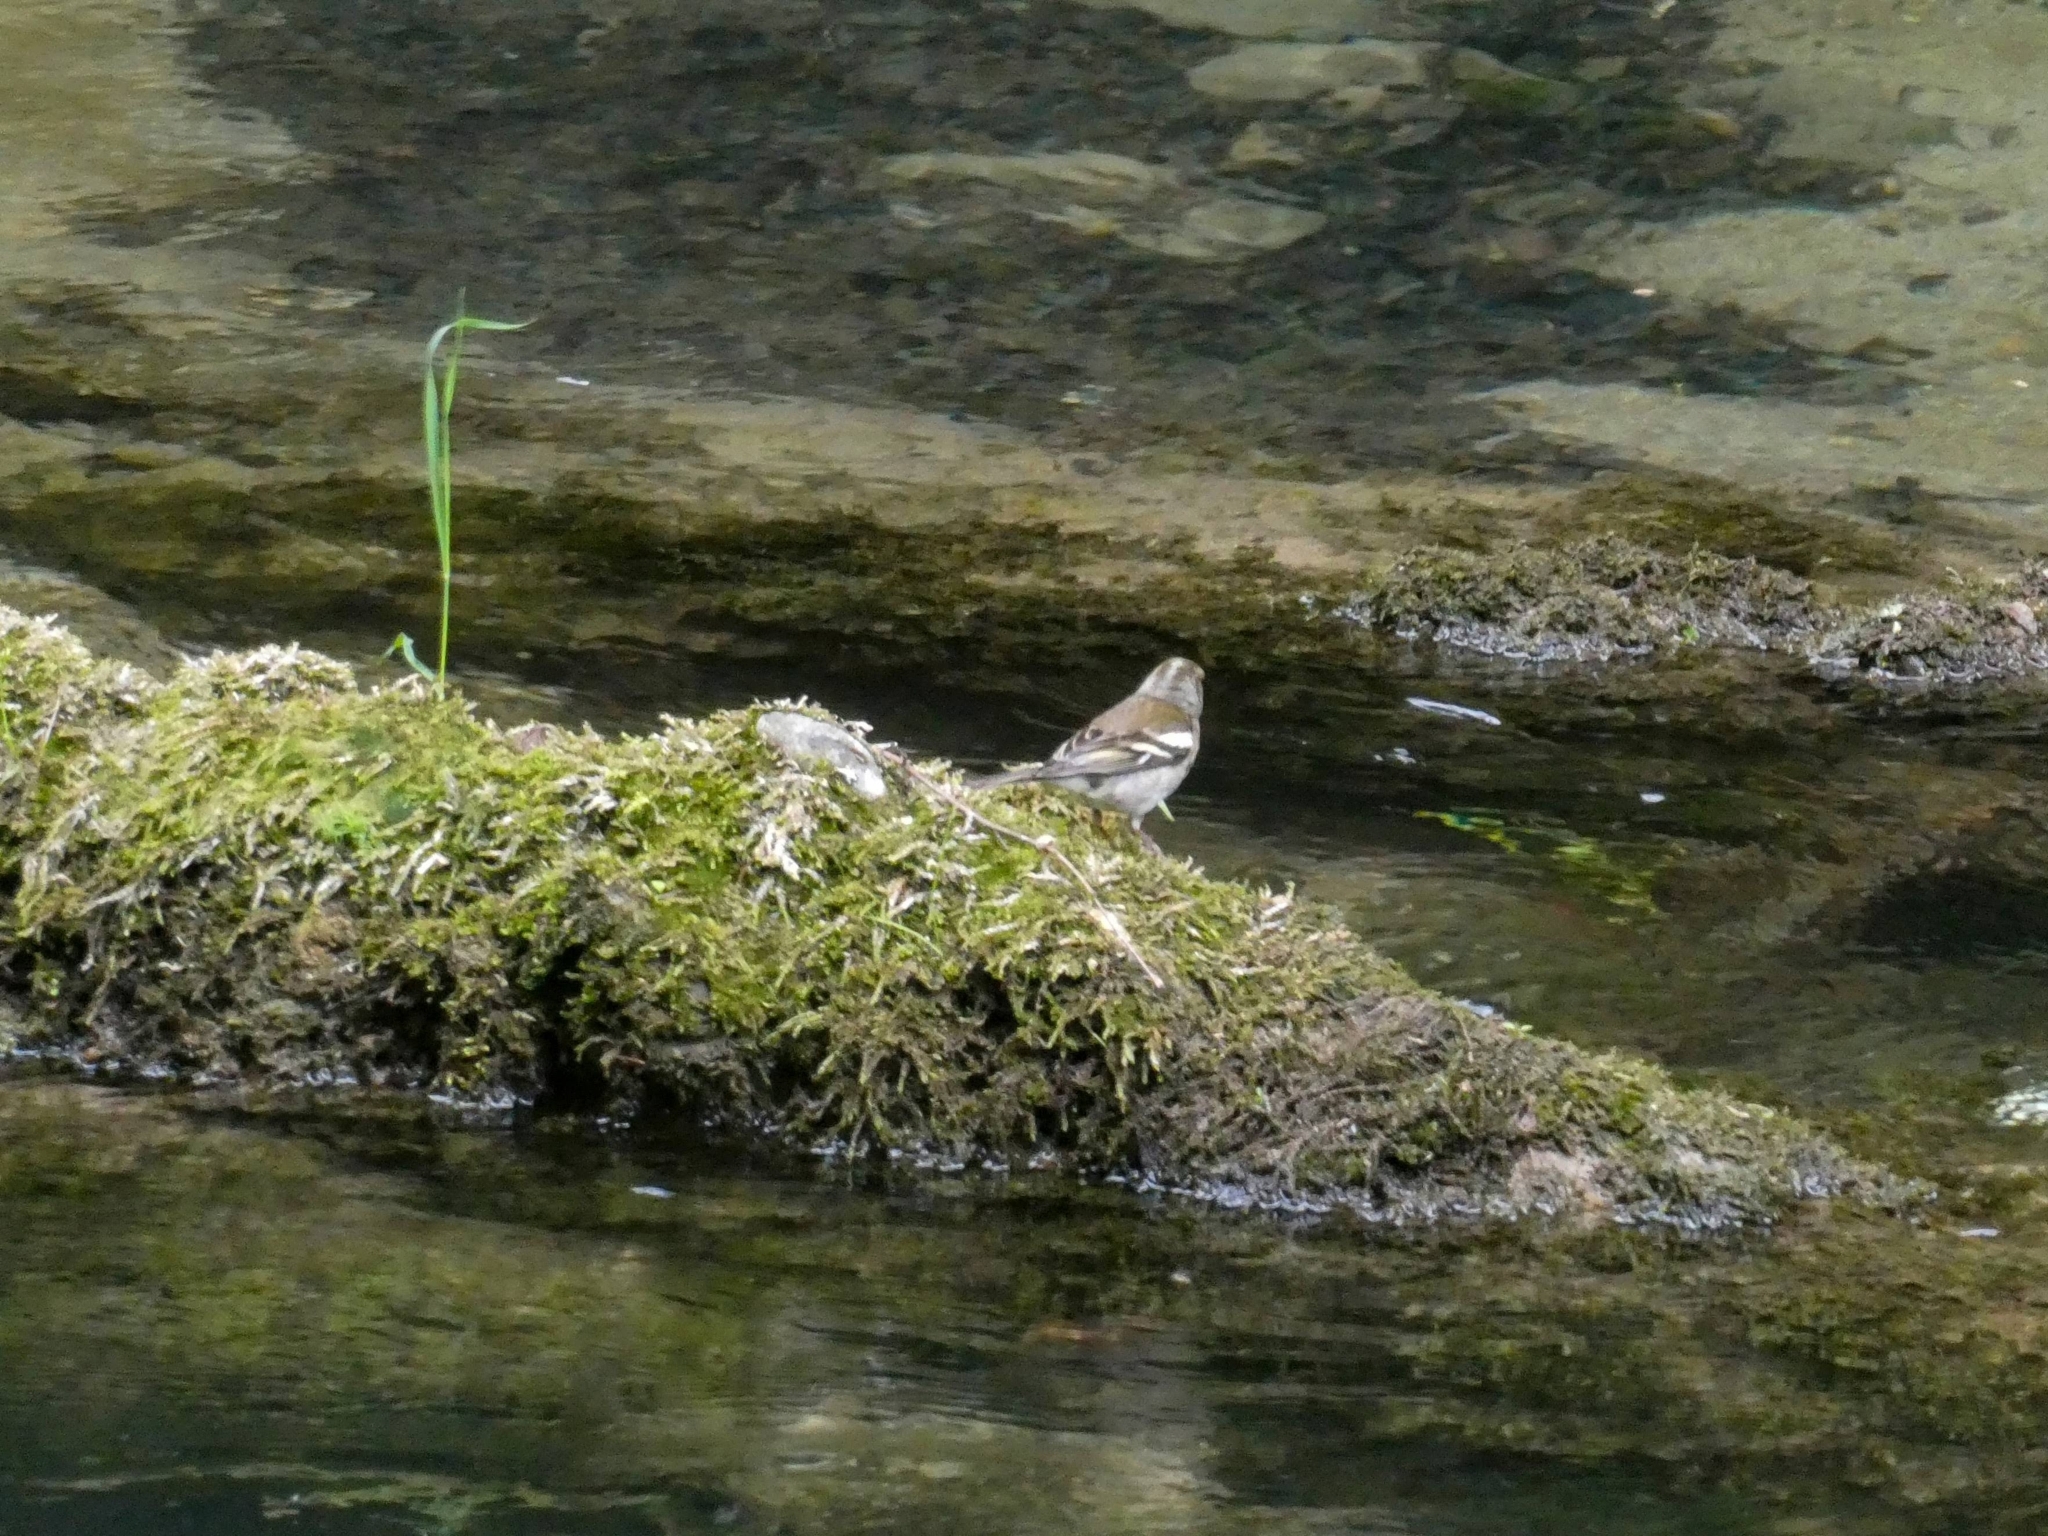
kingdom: Animalia
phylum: Chordata
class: Aves
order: Passeriformes
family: Fringillidae
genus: Fringilla
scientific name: Fringilla coelebs
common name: Common chaffinch
